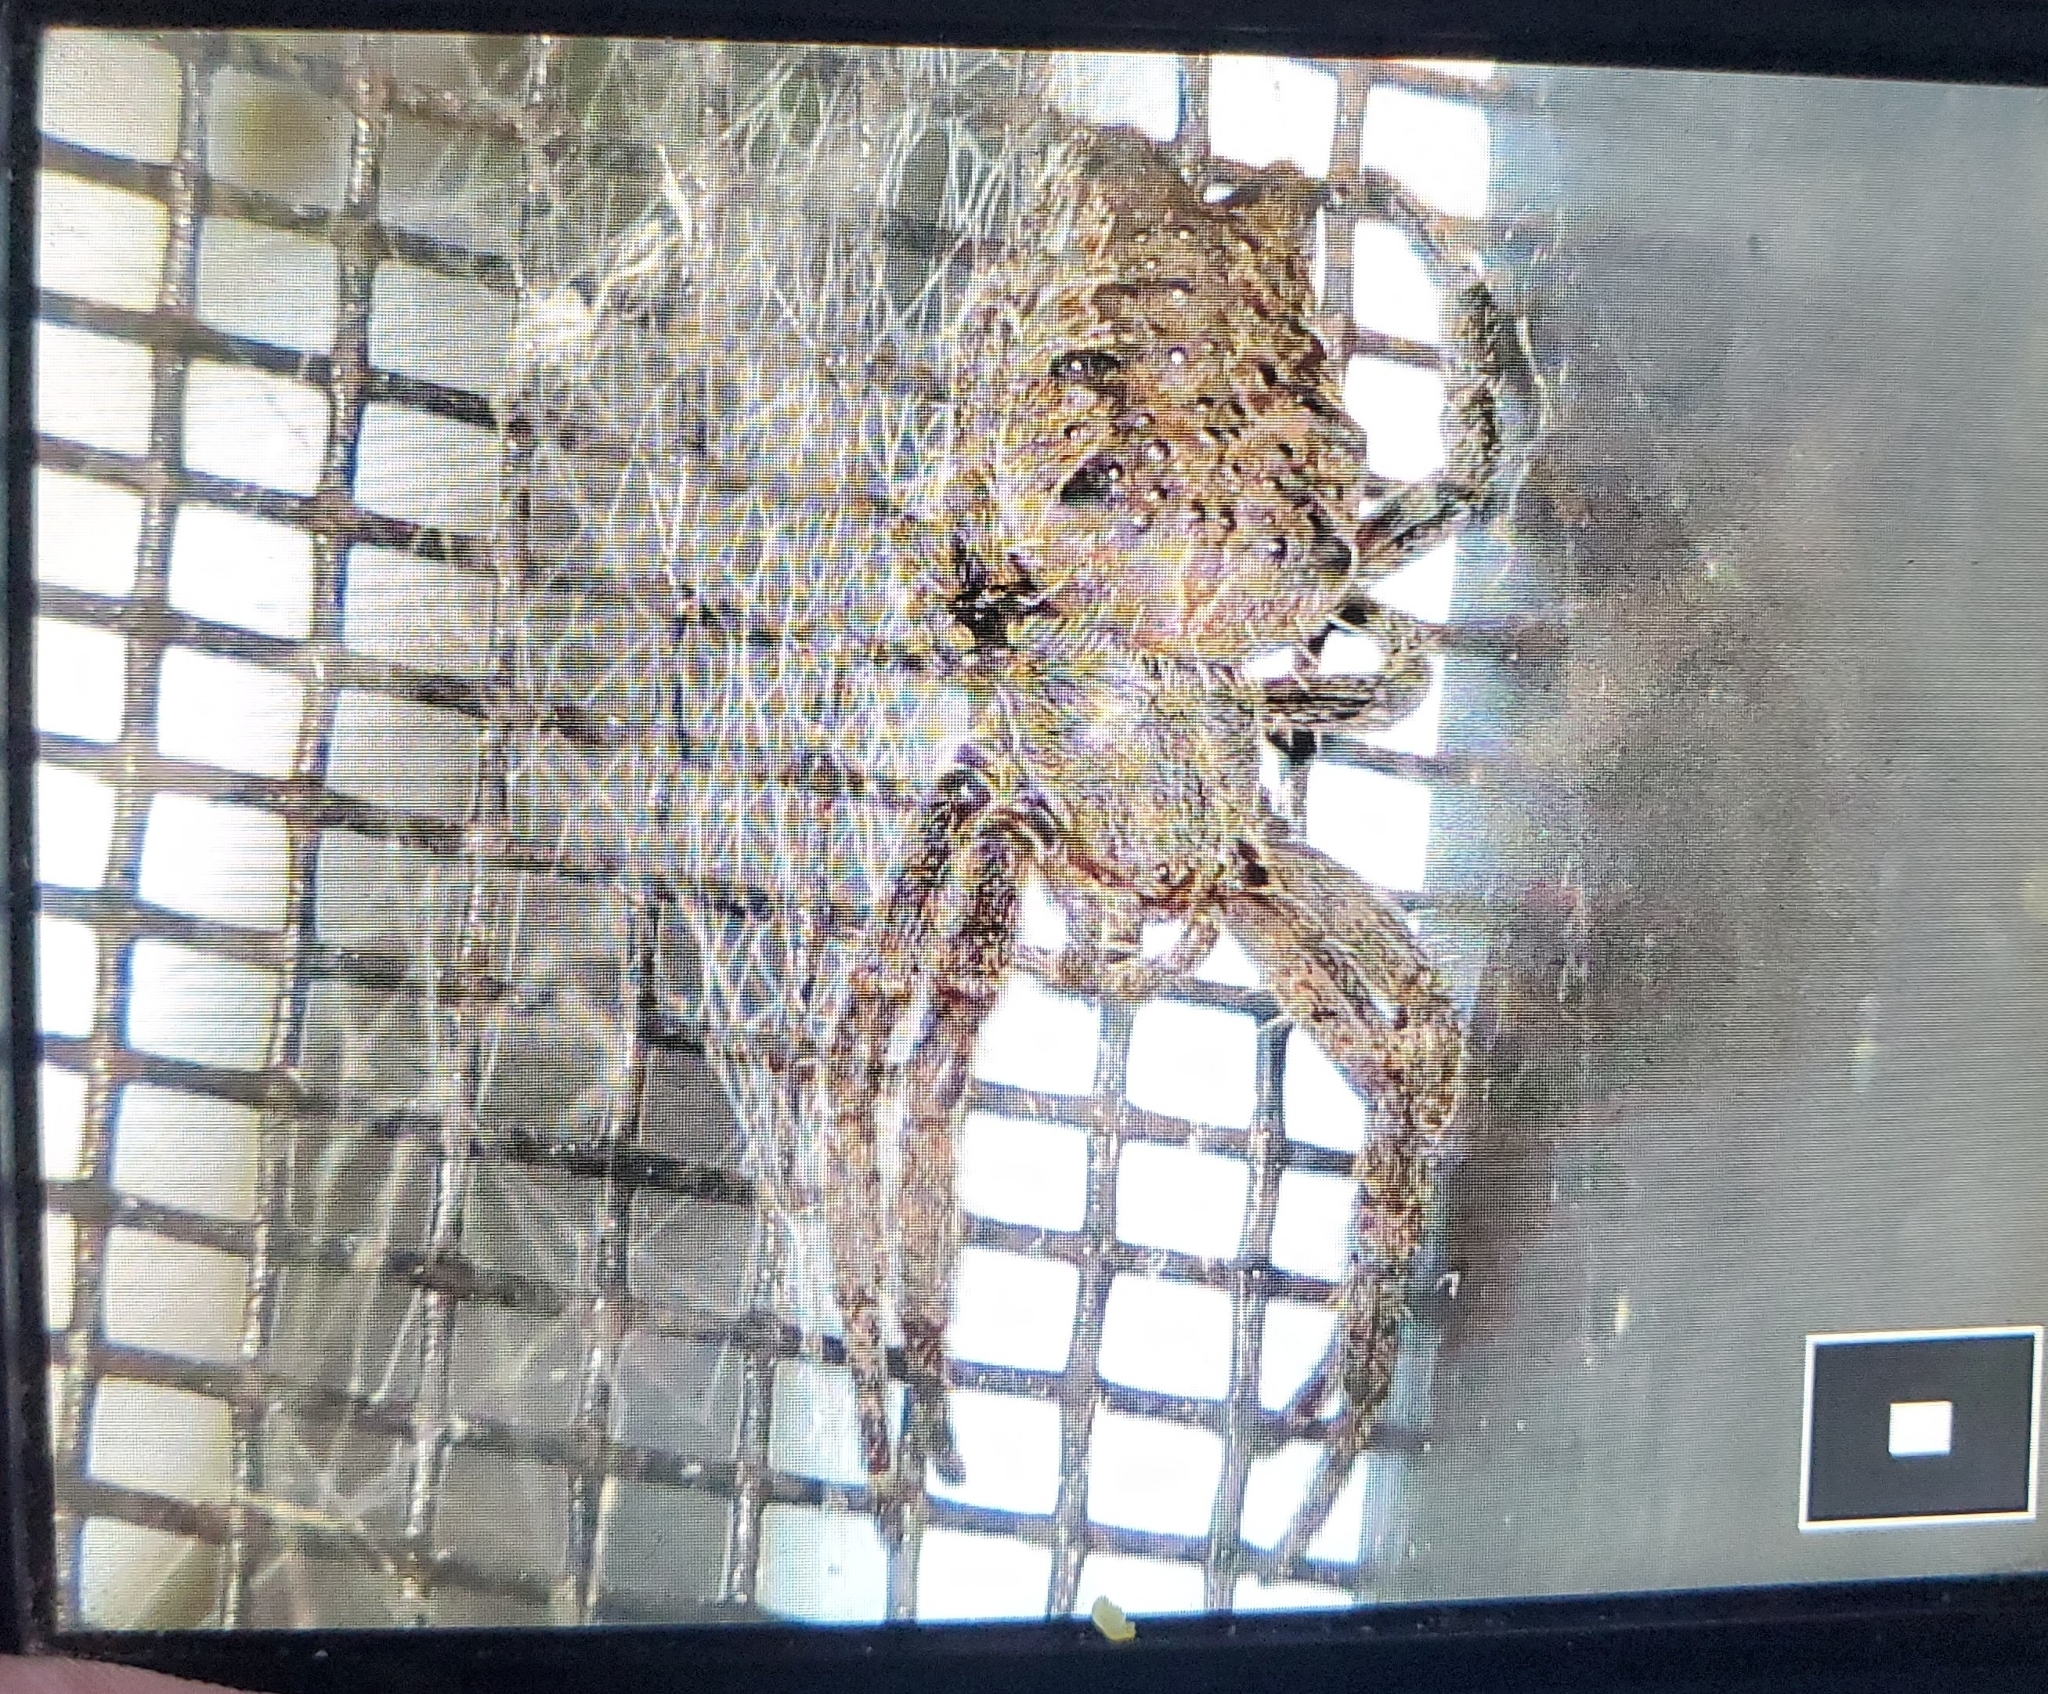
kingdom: Animalia
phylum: Arthropoda
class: Arachnida
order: Araneae
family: Araneidae
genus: Cyrtophora
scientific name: Cyrtophora citricola
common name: Orb weavers
